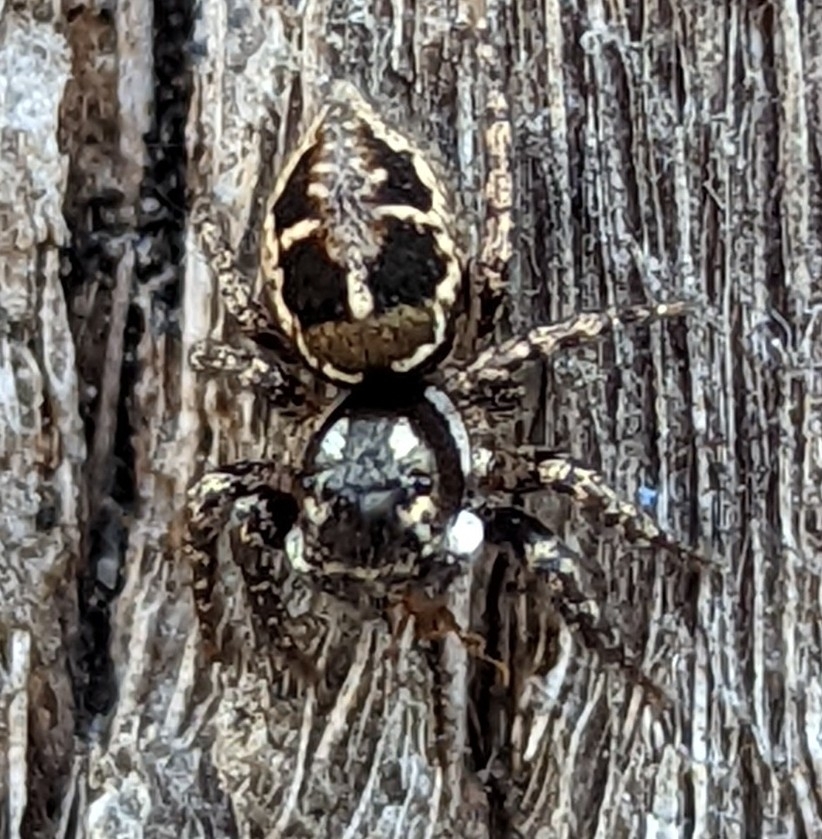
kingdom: Animalia
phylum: Arthropoda
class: Arachnida
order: Araneae
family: Salticidae
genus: Anasaitis
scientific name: Anasaitis canosa
